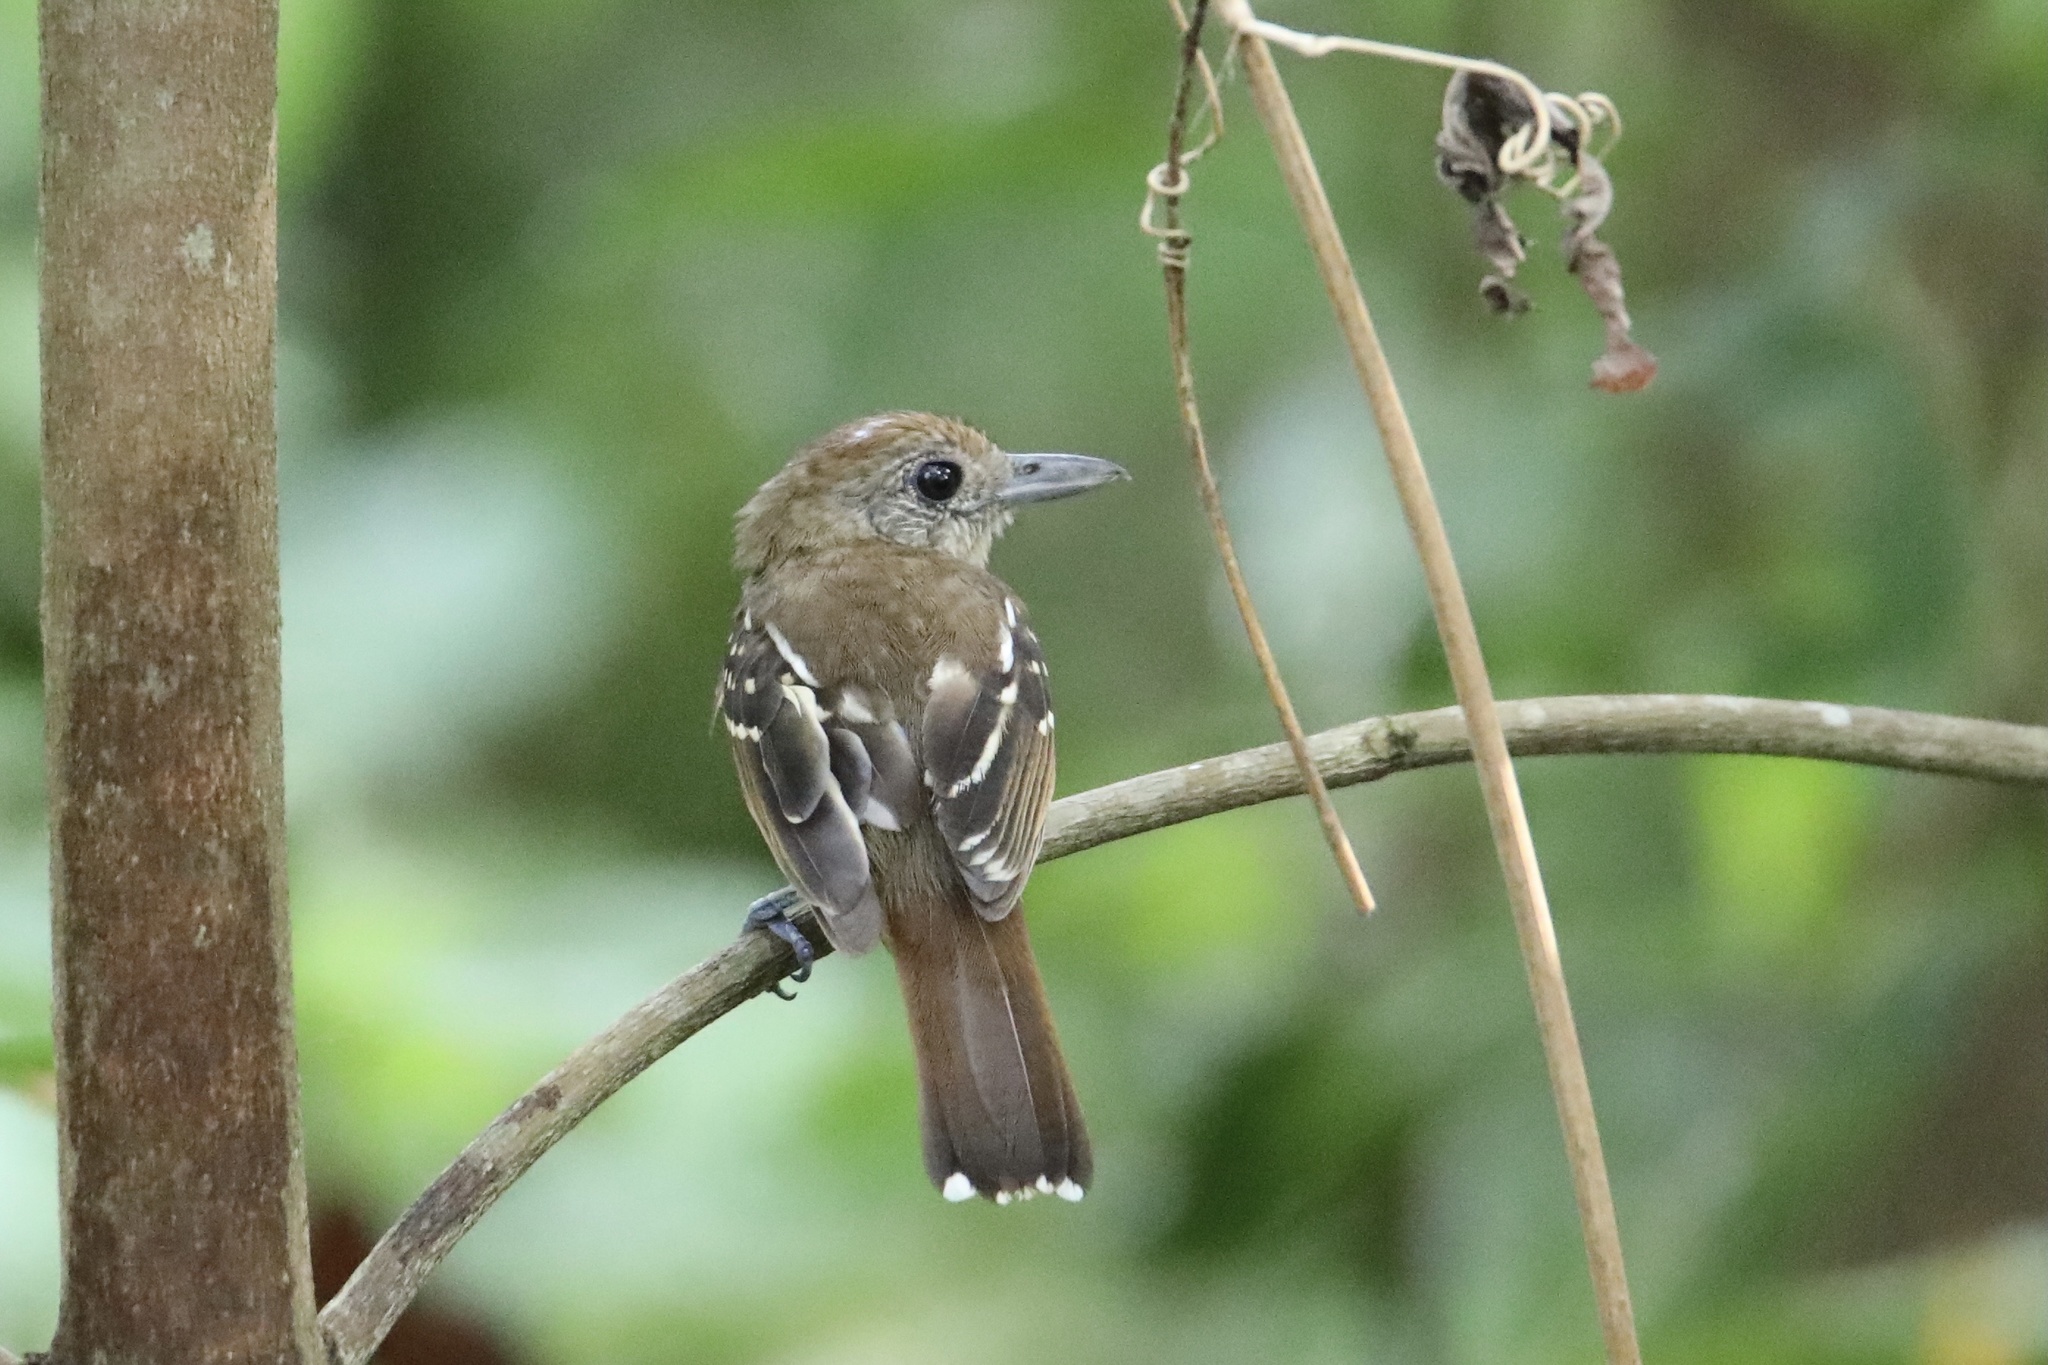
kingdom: Animalia
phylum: Chordata
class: Aves
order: Passeriformes
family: Thamnophilidae
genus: Thamnophilus
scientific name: Thamnophilus atrinucha
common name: Black-crowned antshrike
